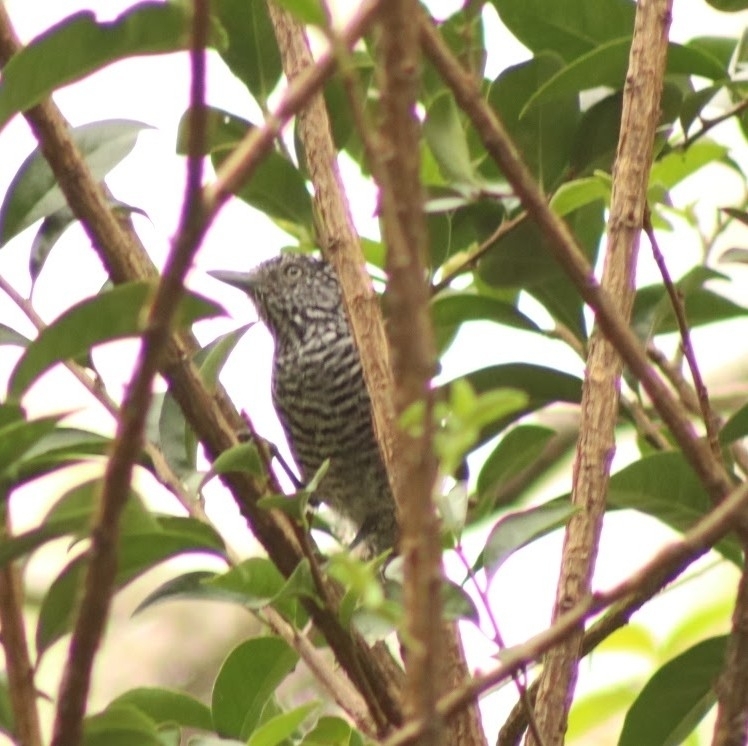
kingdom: Animalia
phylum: Chordata
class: Aves
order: Passeriformes
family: Thamnophilidae
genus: Thamnophilus
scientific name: Thamnophilus multistriatus
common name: Bar-crested antshrike
